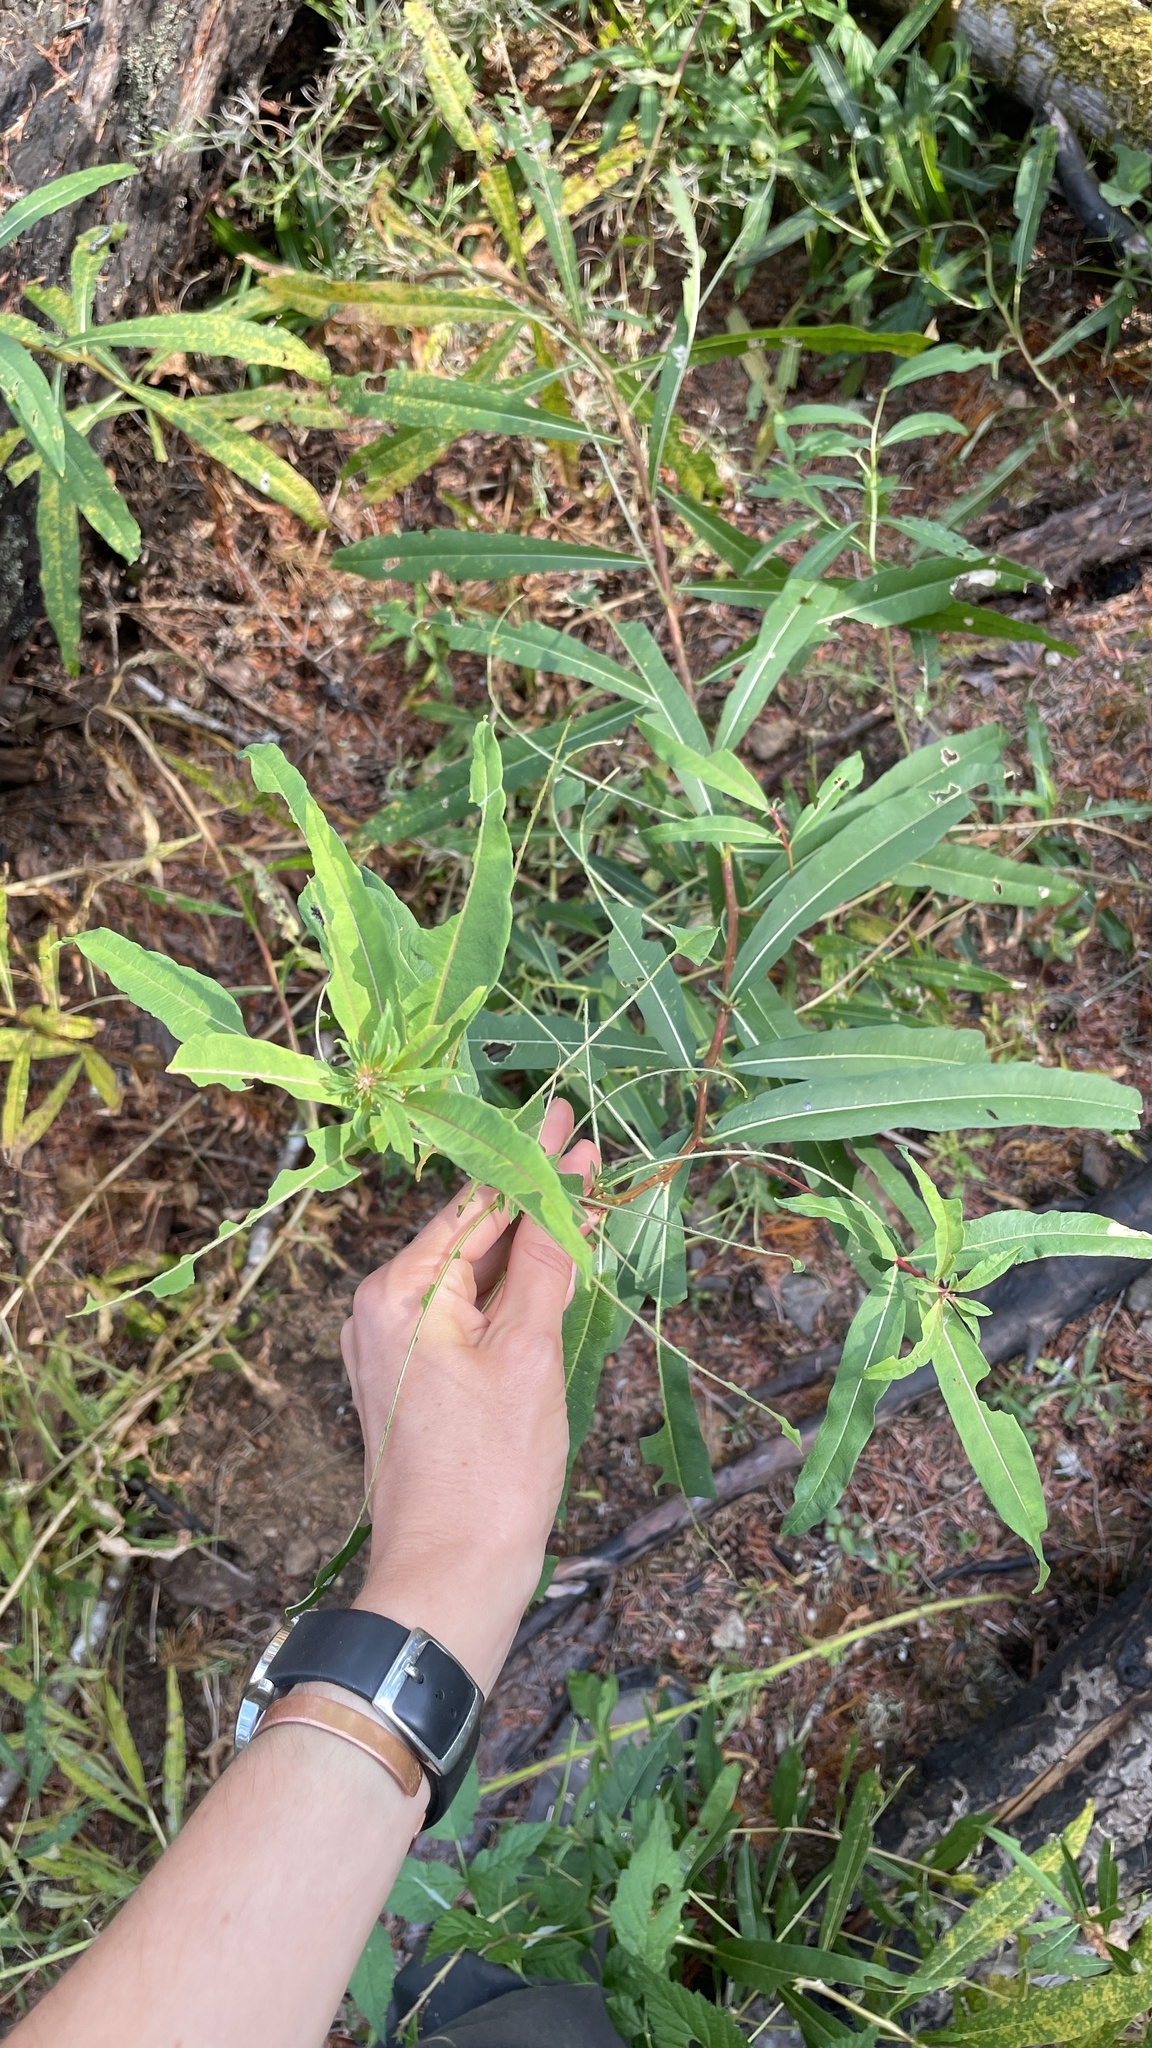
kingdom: Plantae
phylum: Tracheophyta
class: Magnoliopsida
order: Myrtales
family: Onagraceae
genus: Chamaenerion
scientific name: Chamaenerion angustifolium
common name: Fireweed
